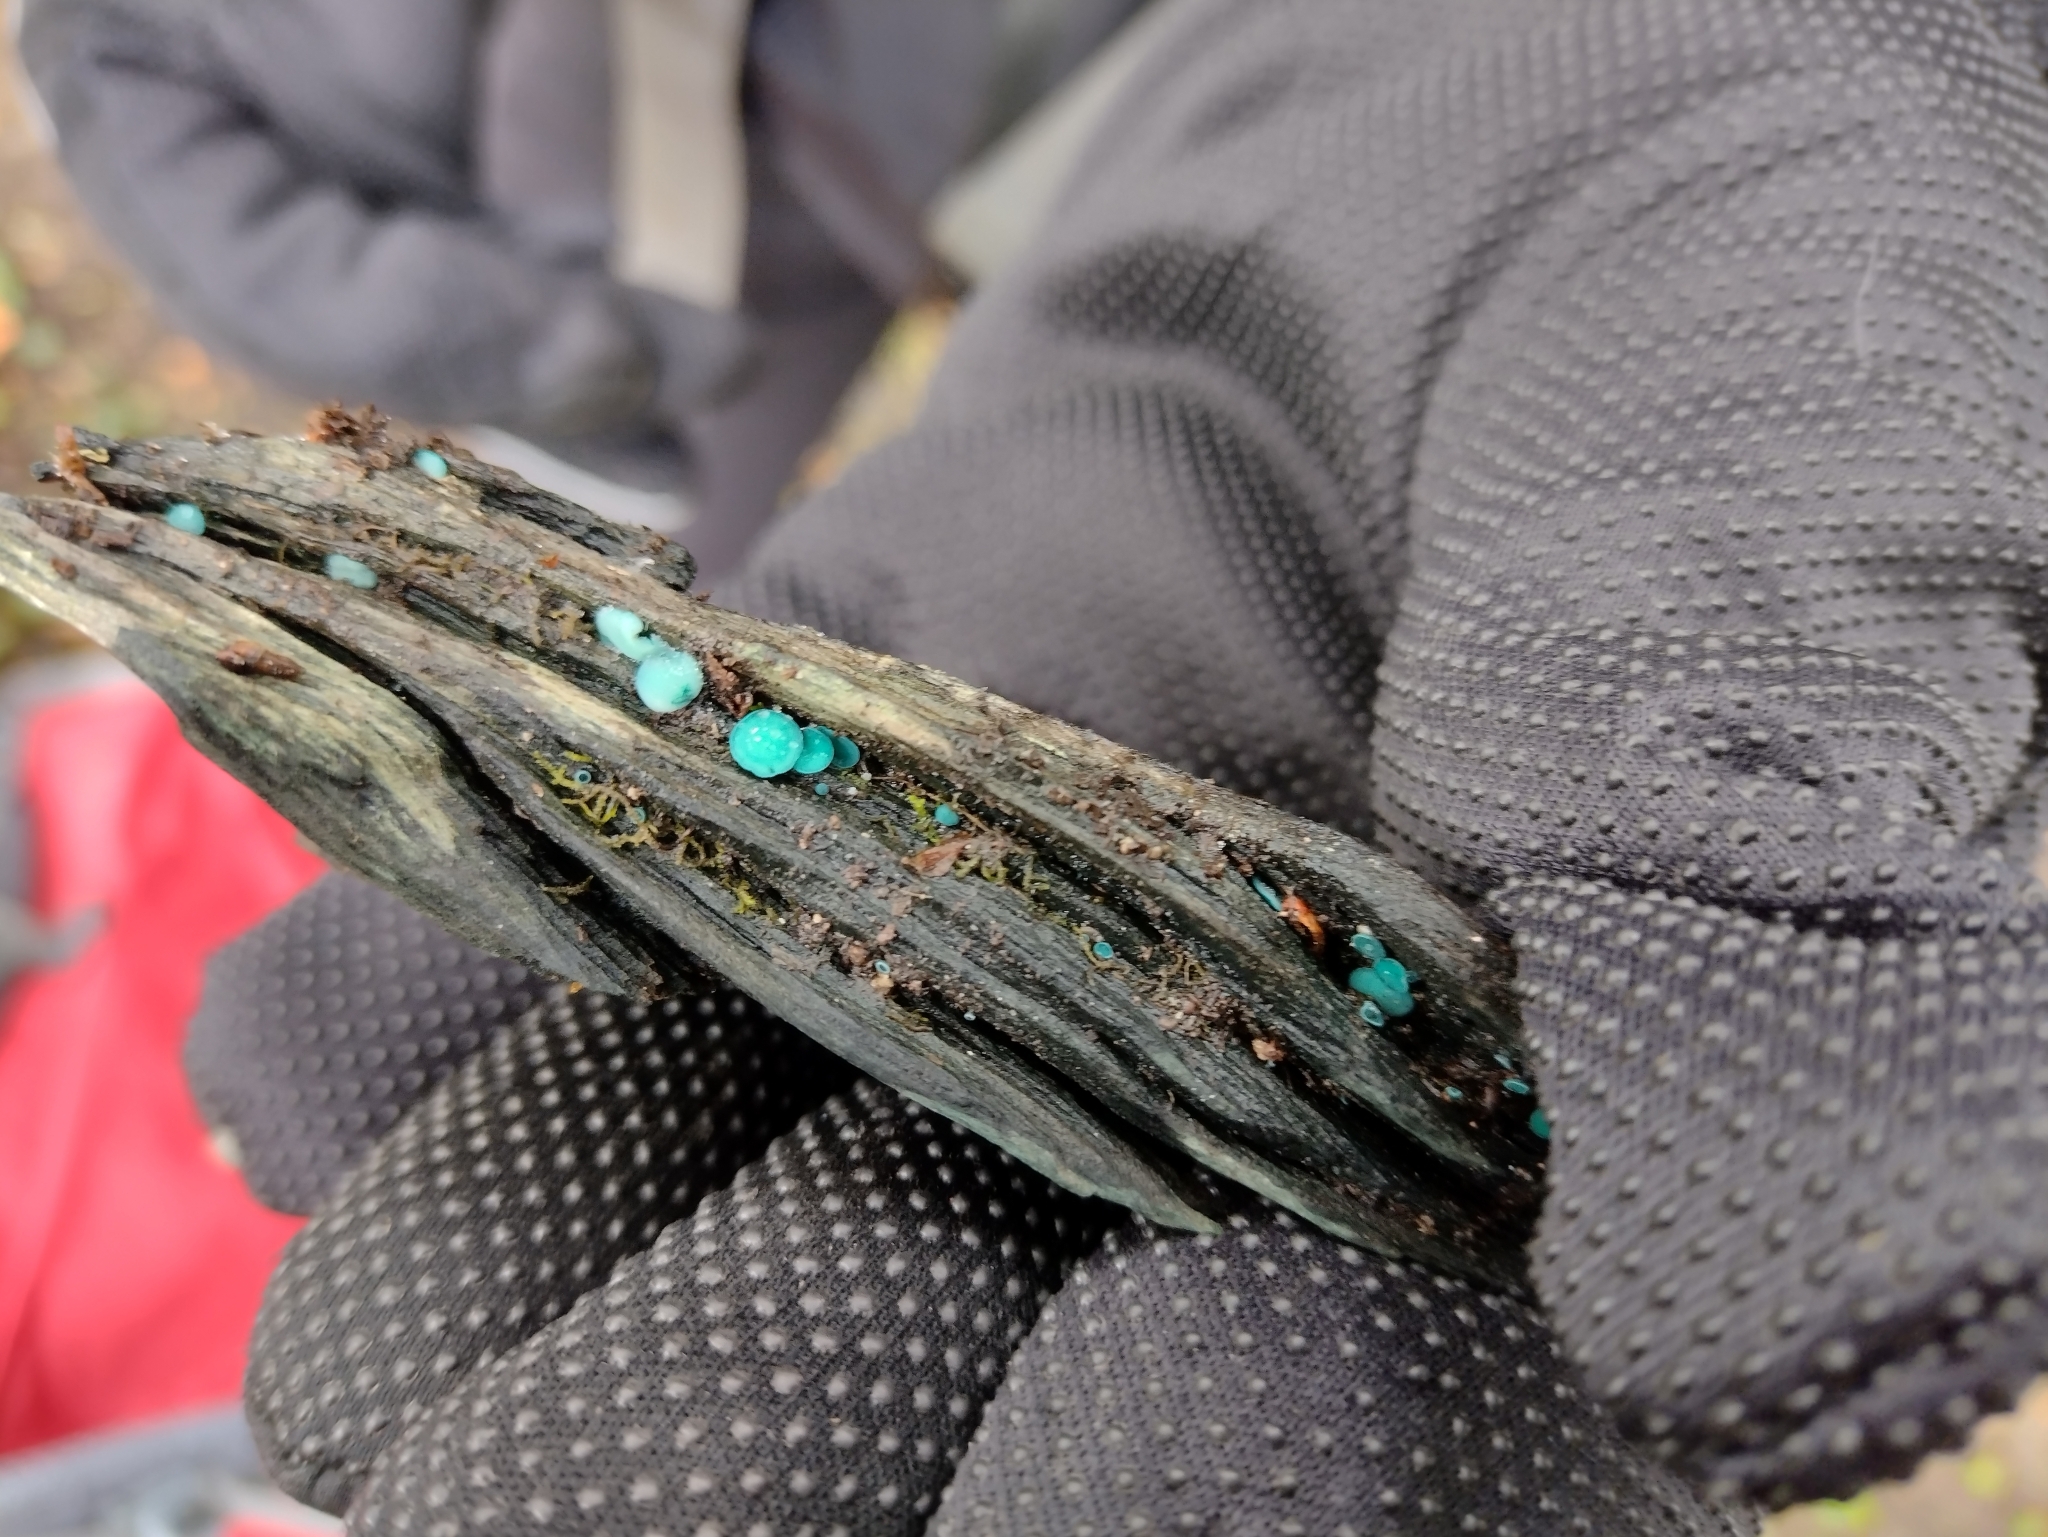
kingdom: Fungi
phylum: Ascomycota
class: Leotiomycetes
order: Helotiales
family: Chlorociboriaceae
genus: Chlorociboria
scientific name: Chlorociboria aeruginosa
